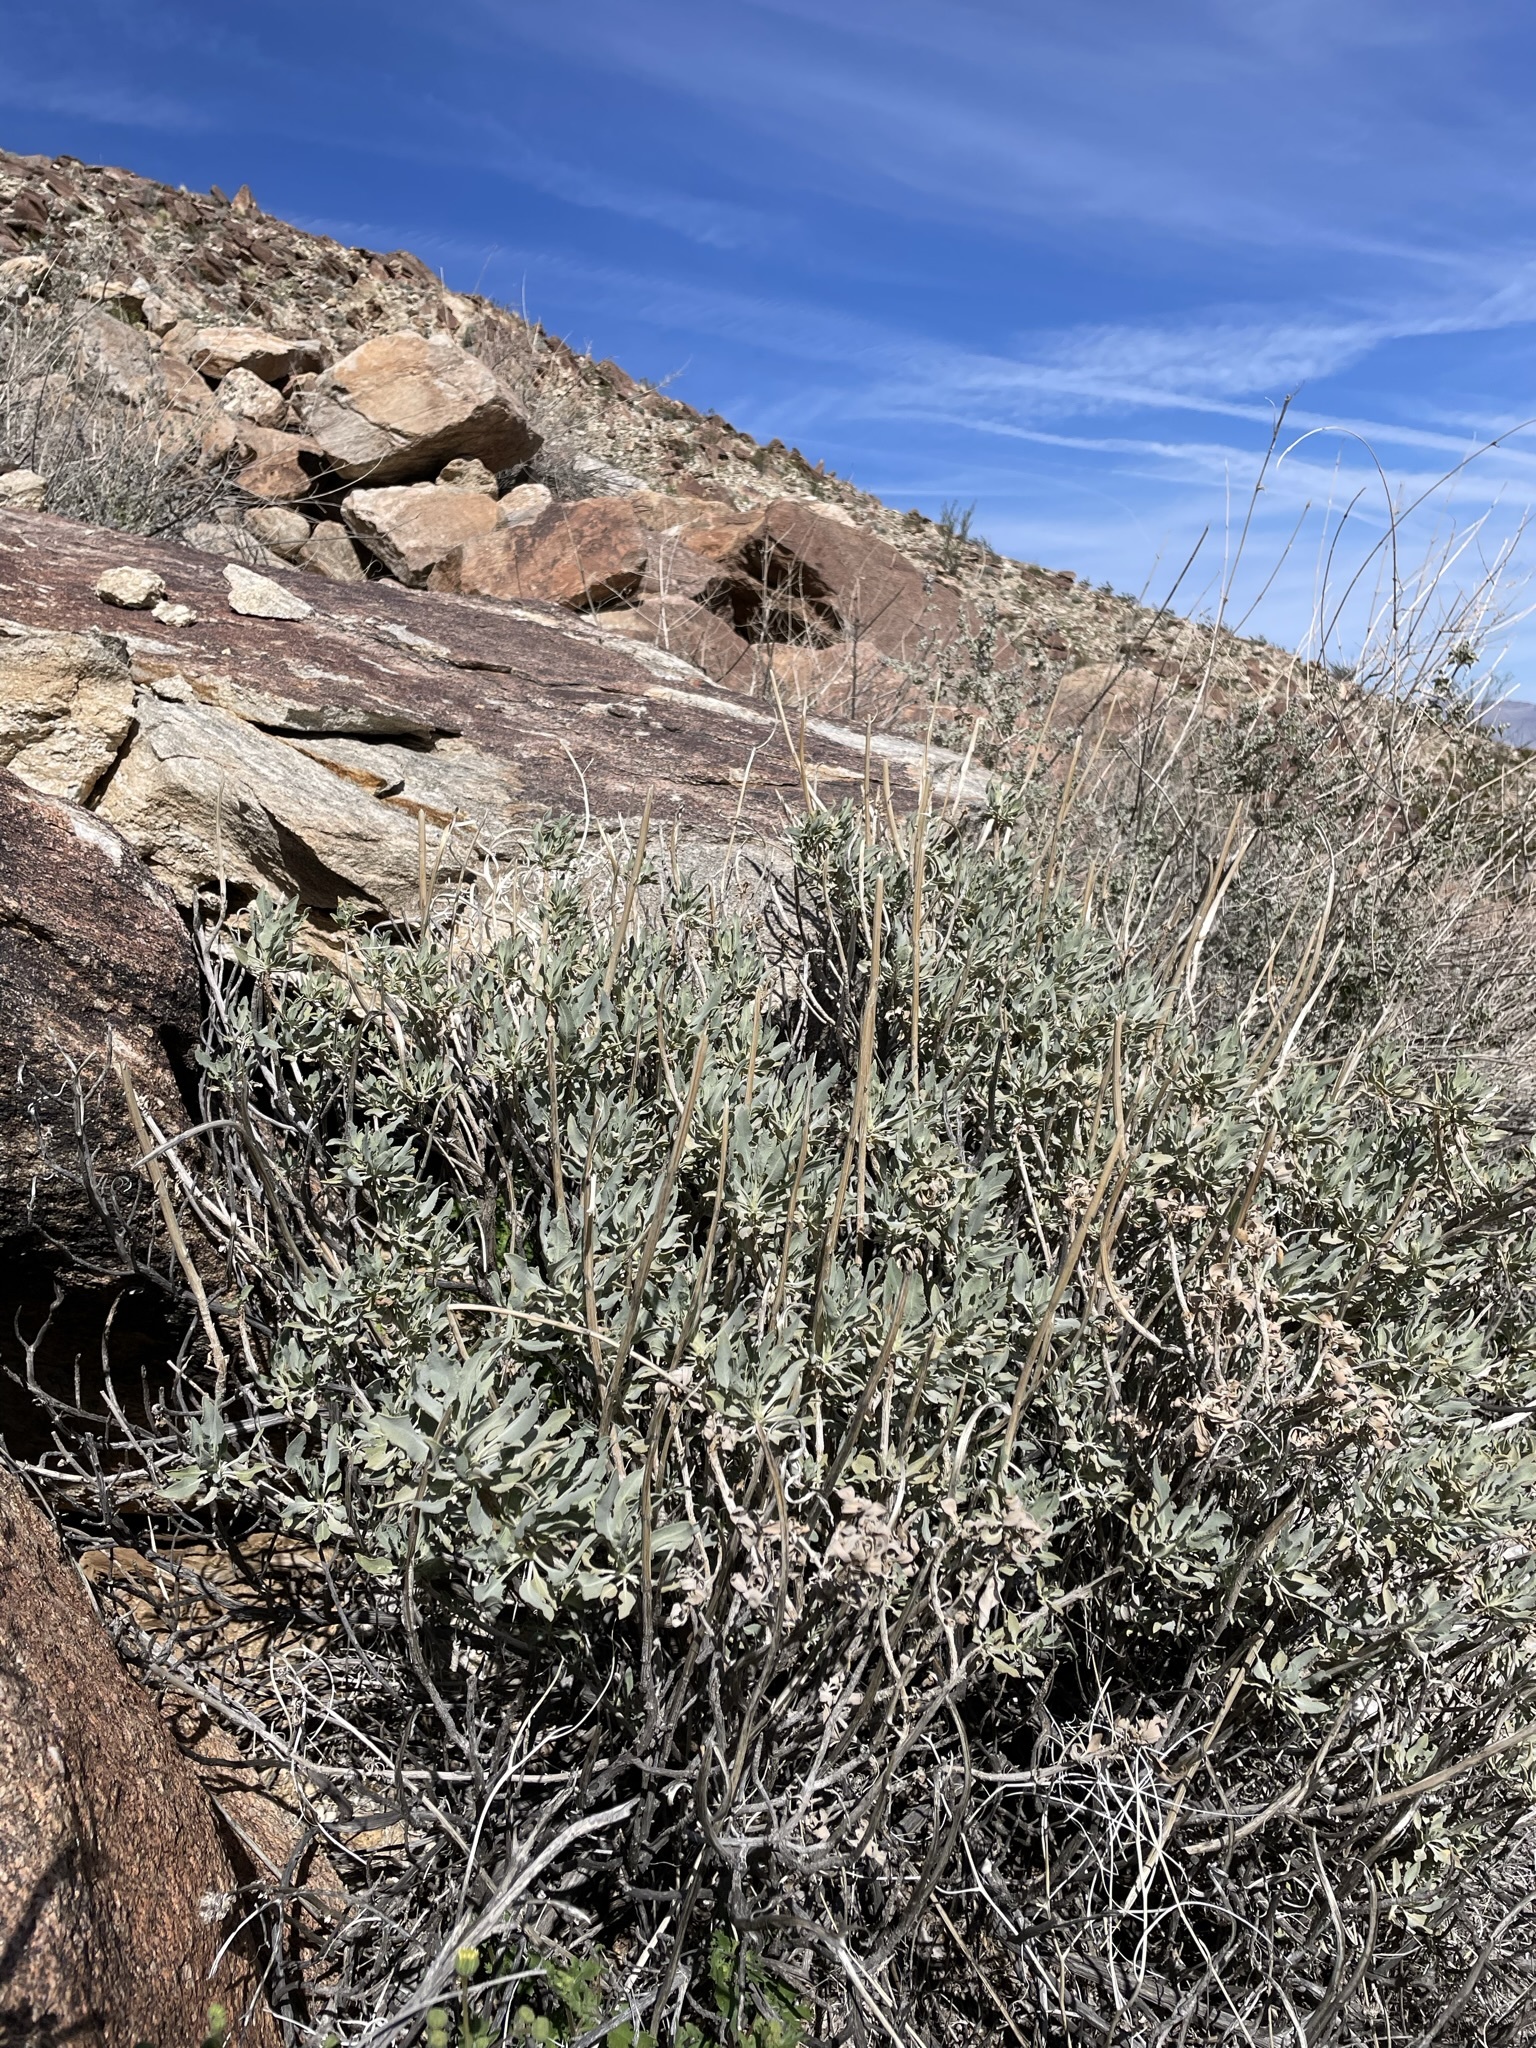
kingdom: Plantae
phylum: Tracheophyta
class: Magnoliopsida
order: Lamiales
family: Lamiaceae
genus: Salvia
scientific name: Salvia vaseyi
